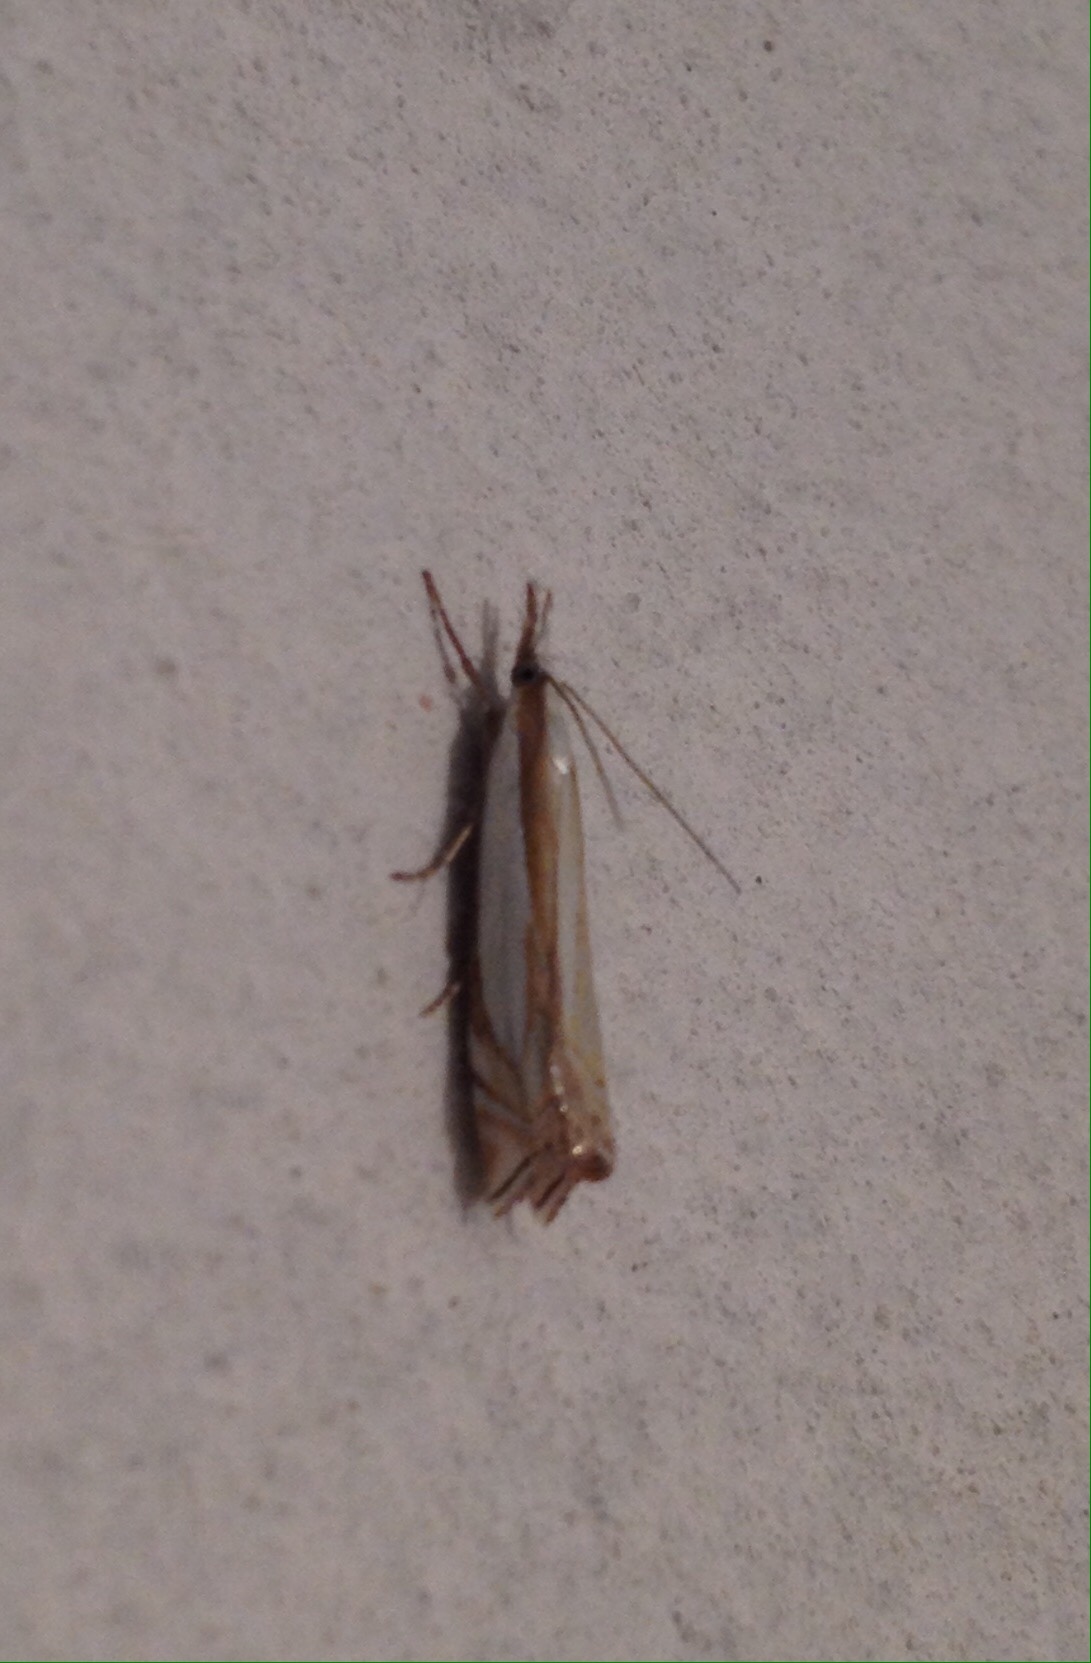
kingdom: Animalia
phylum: Arthropoda
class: Insecta
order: Lepidoptera
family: Crambidae
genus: Crambus
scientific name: Crambus pascuella
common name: Inlaid grass-veneer
